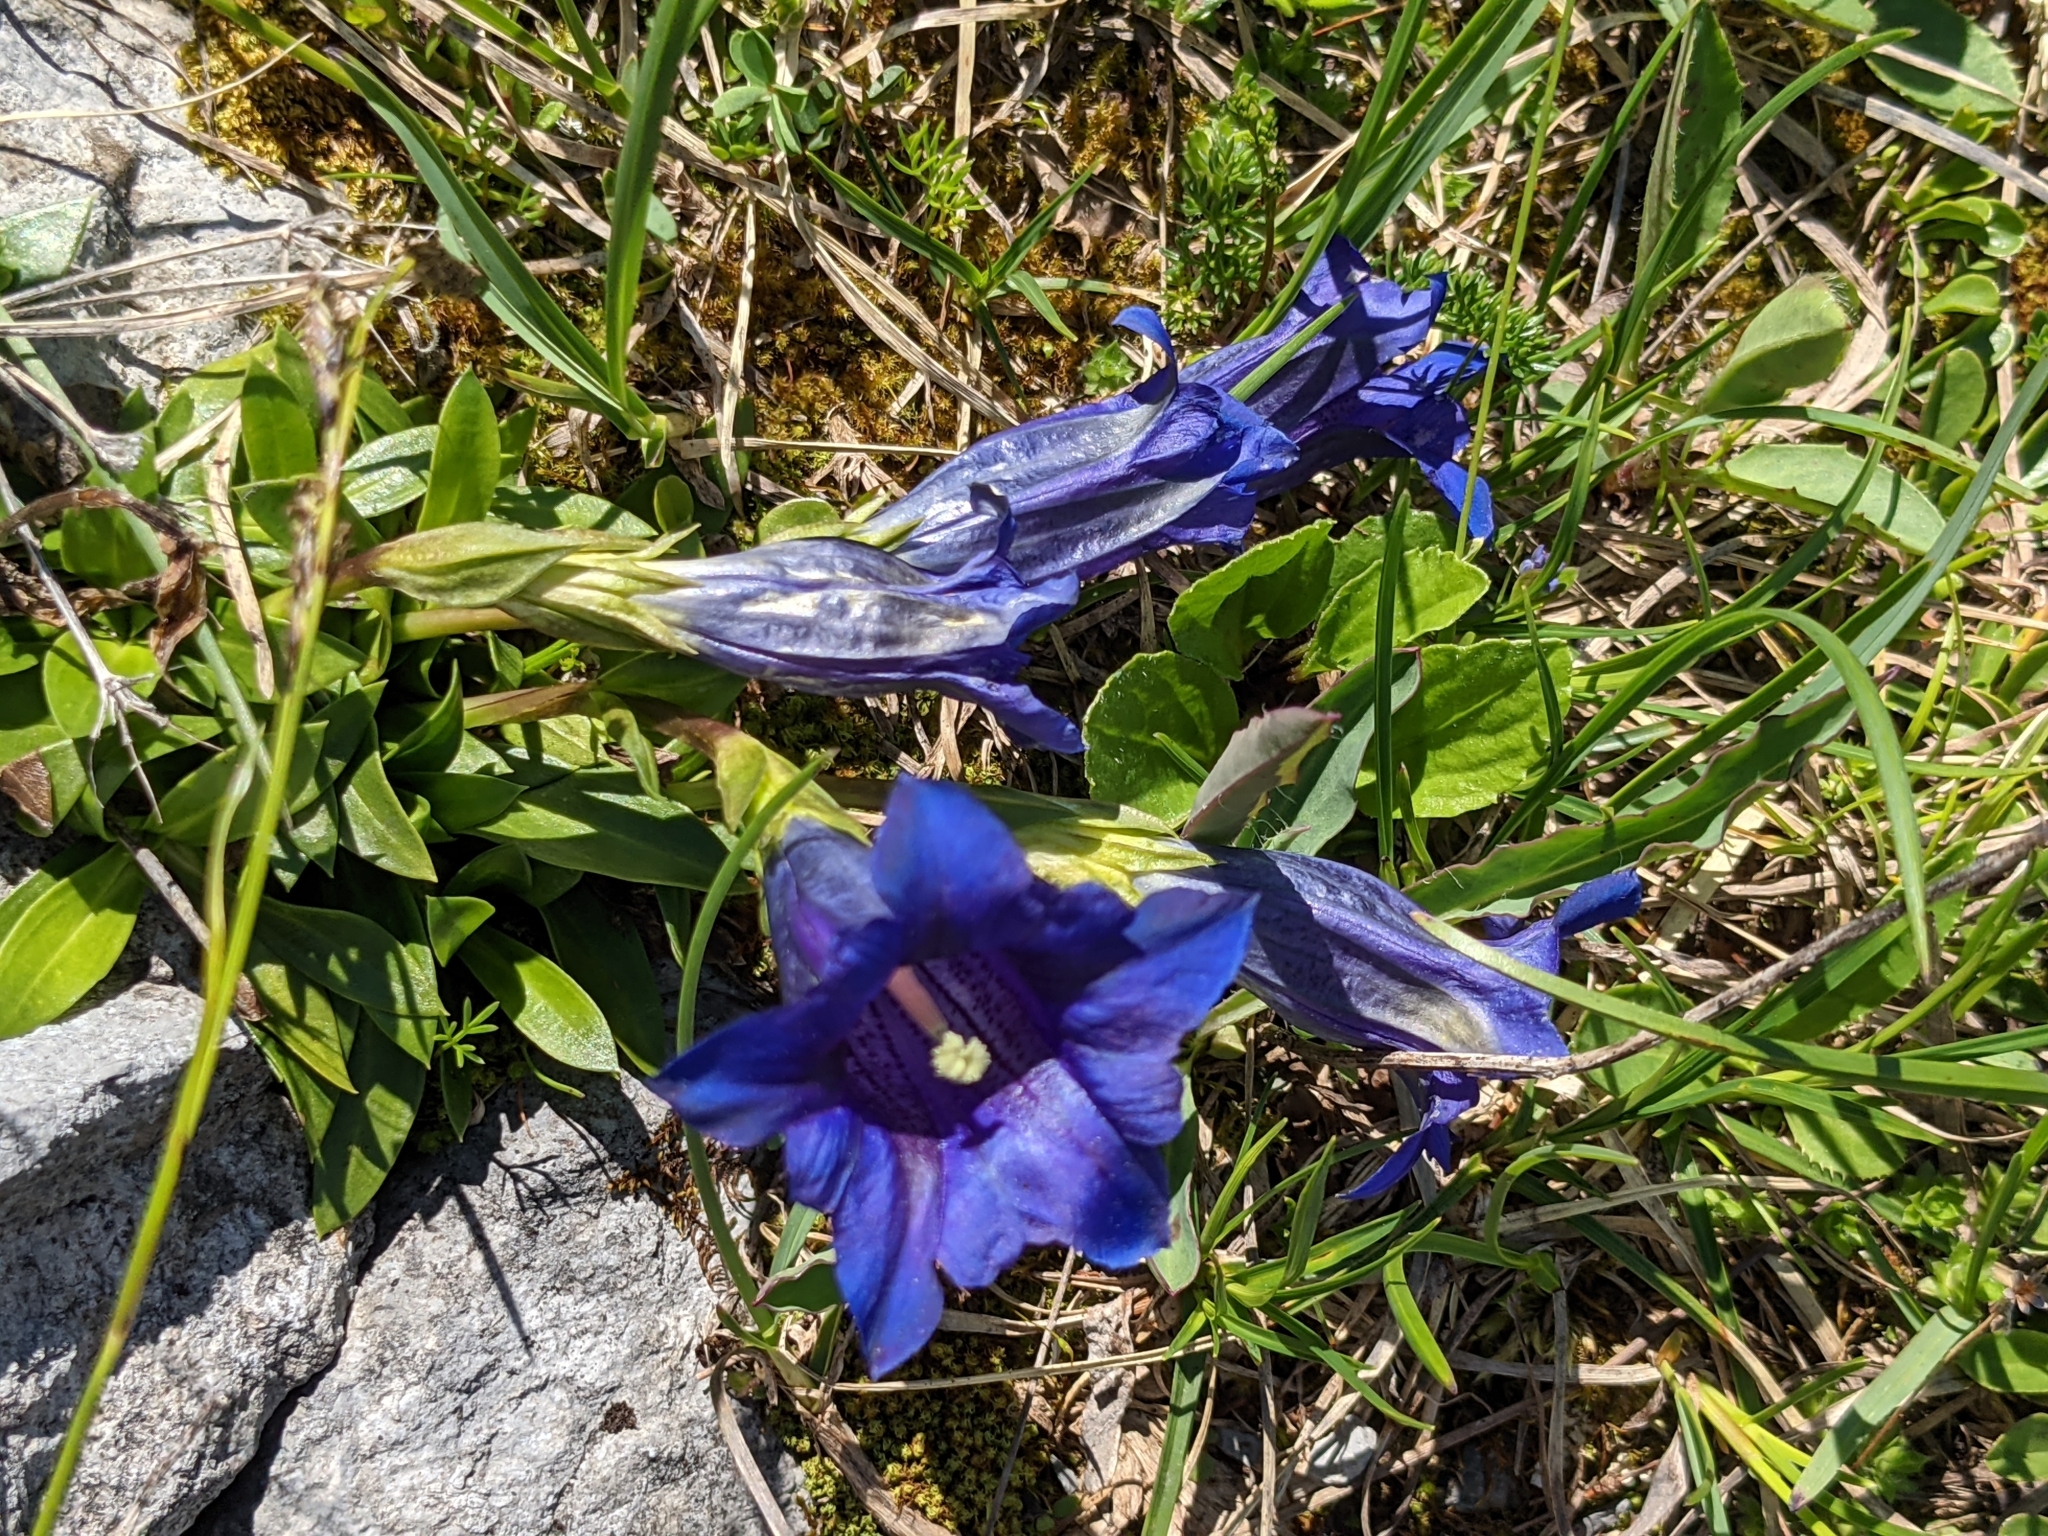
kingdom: Plantae
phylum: Tracheophyta
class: Magnoliopsida
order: Gentianales
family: Gentianaceae
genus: Gentiana
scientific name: Gentiana clusii
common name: Trumpet gentian
